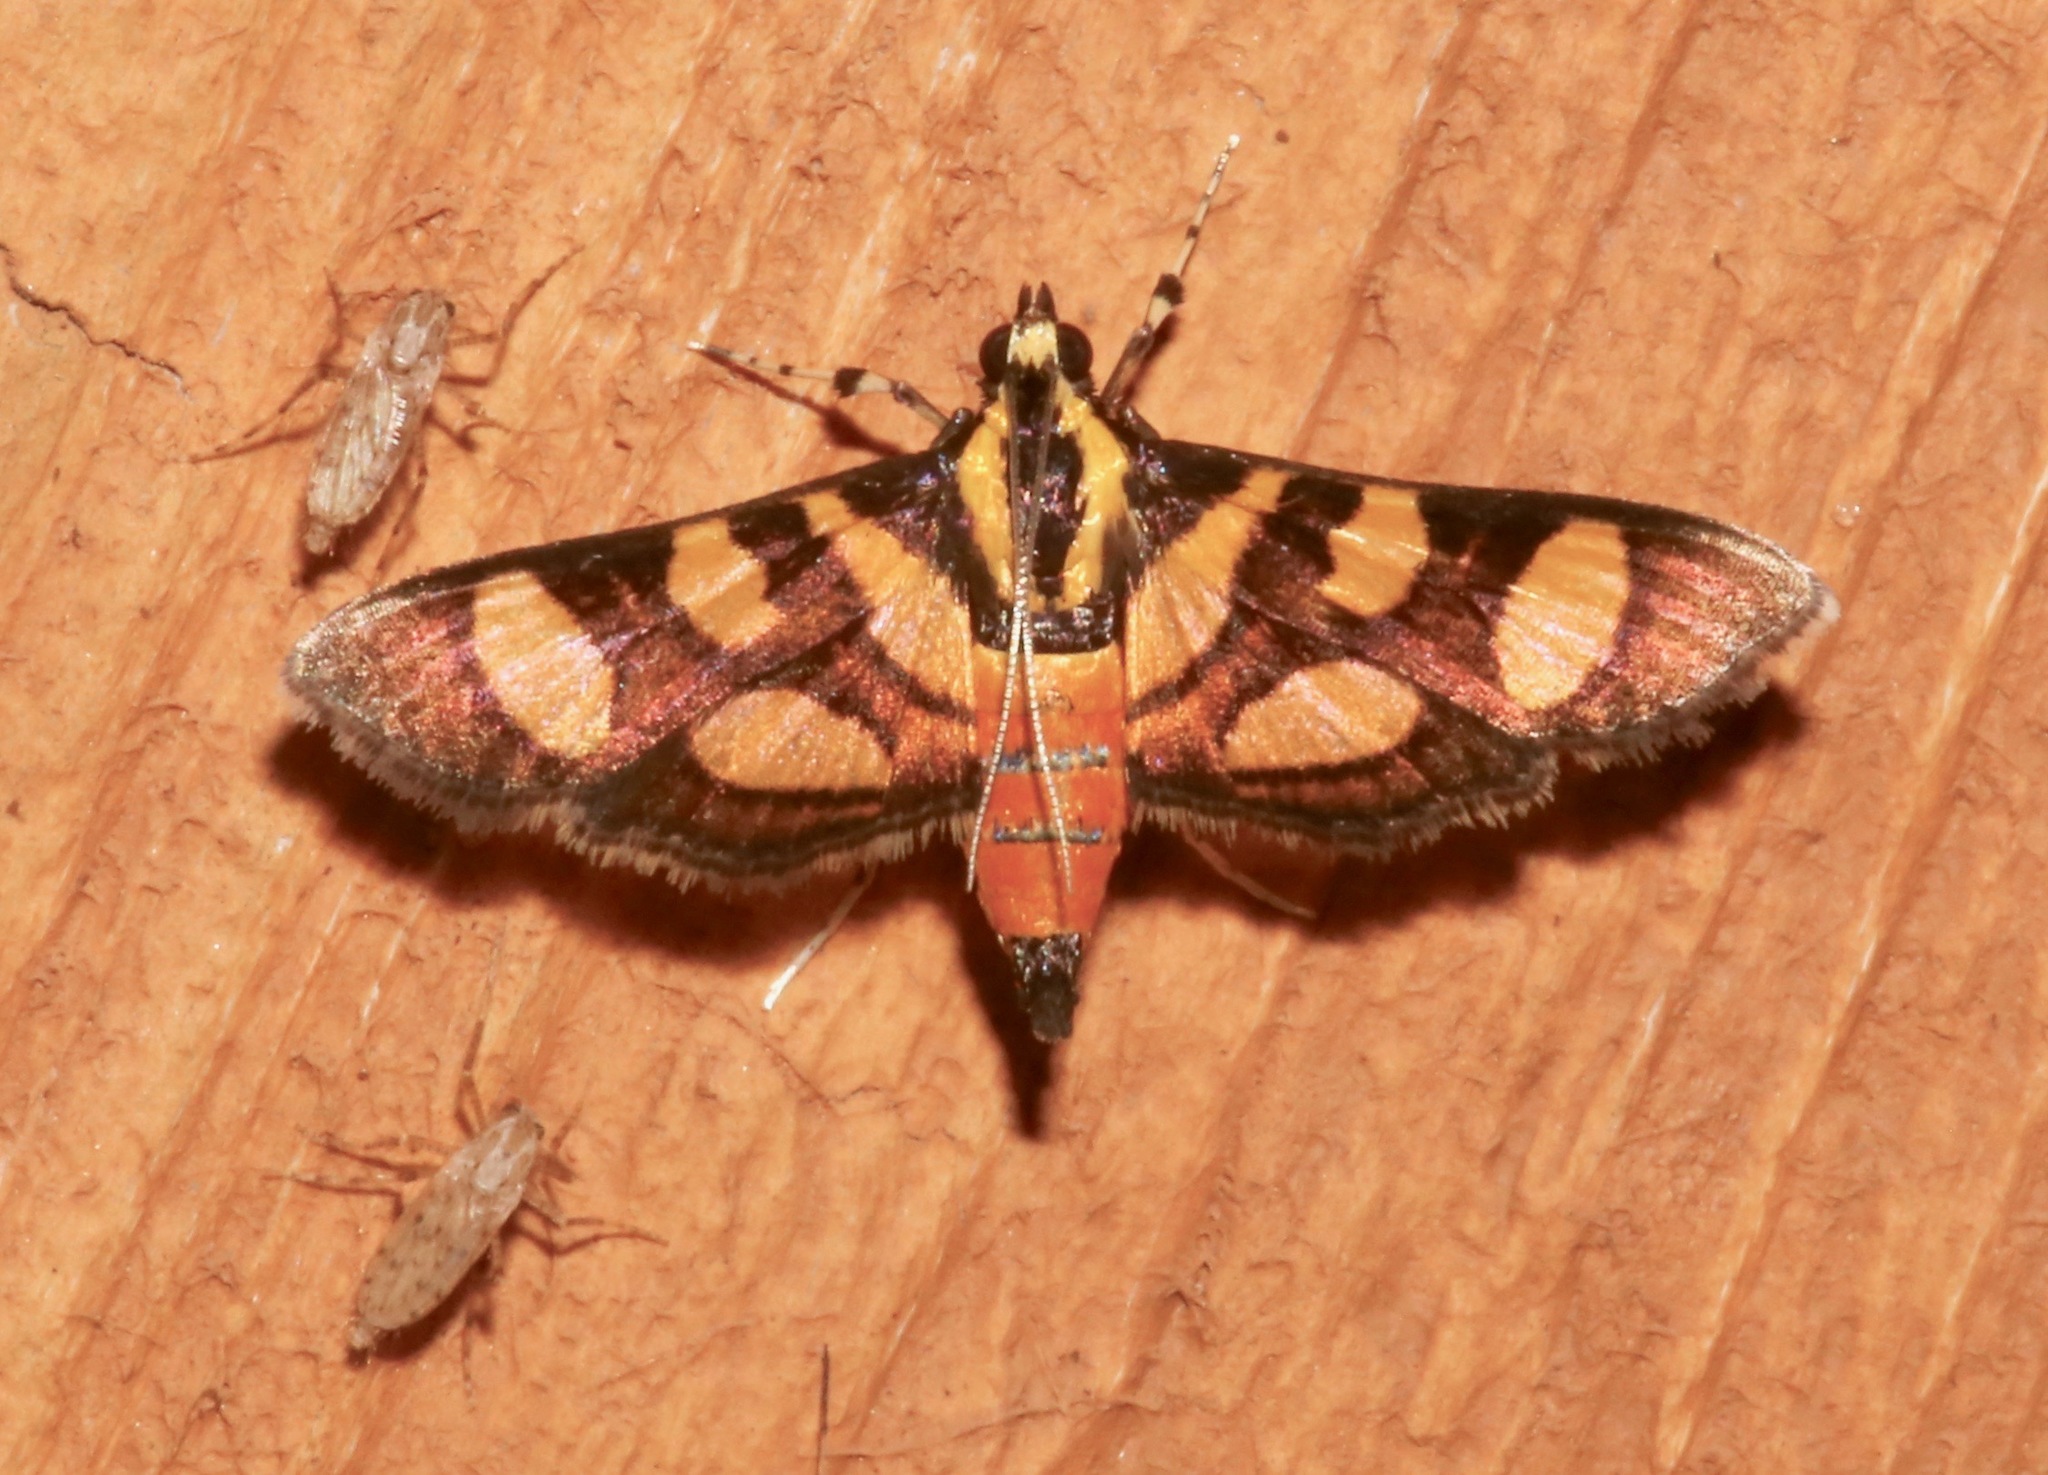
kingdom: Animalia
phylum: Arthropoda
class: Insecta
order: Lepidoptera
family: Crambidae
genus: Syngamia
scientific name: Syngamia florella
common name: Orange-spotted flower moth
